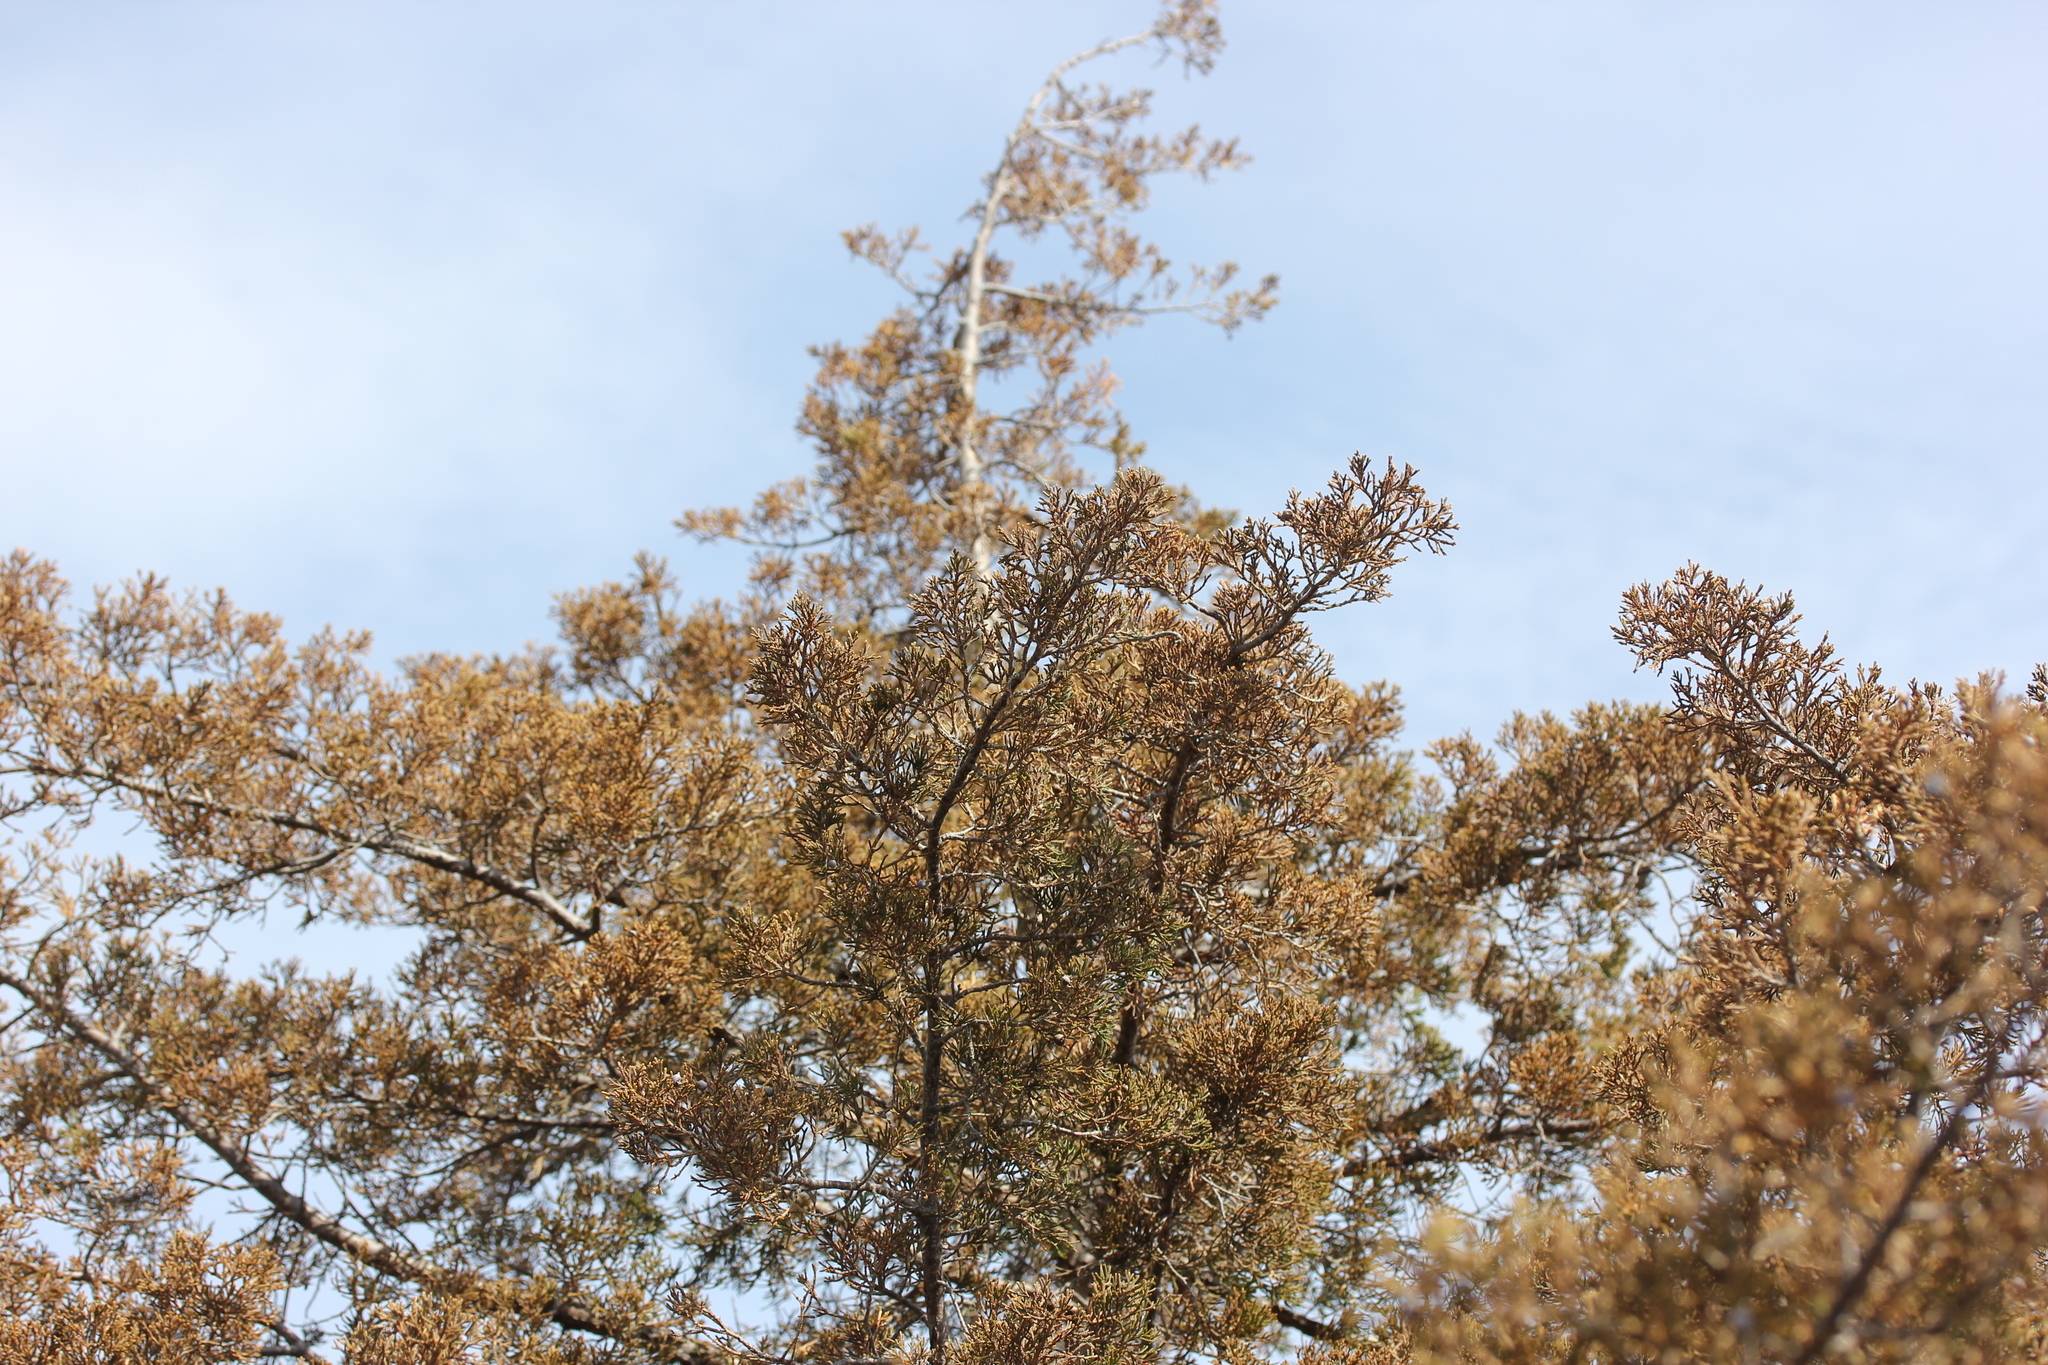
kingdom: Plantae
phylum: Tracheophyta
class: Pinopsida
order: Pinales
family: Cupressaceae
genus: Juniperus
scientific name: Juniperus virginiana
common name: Red juniper
